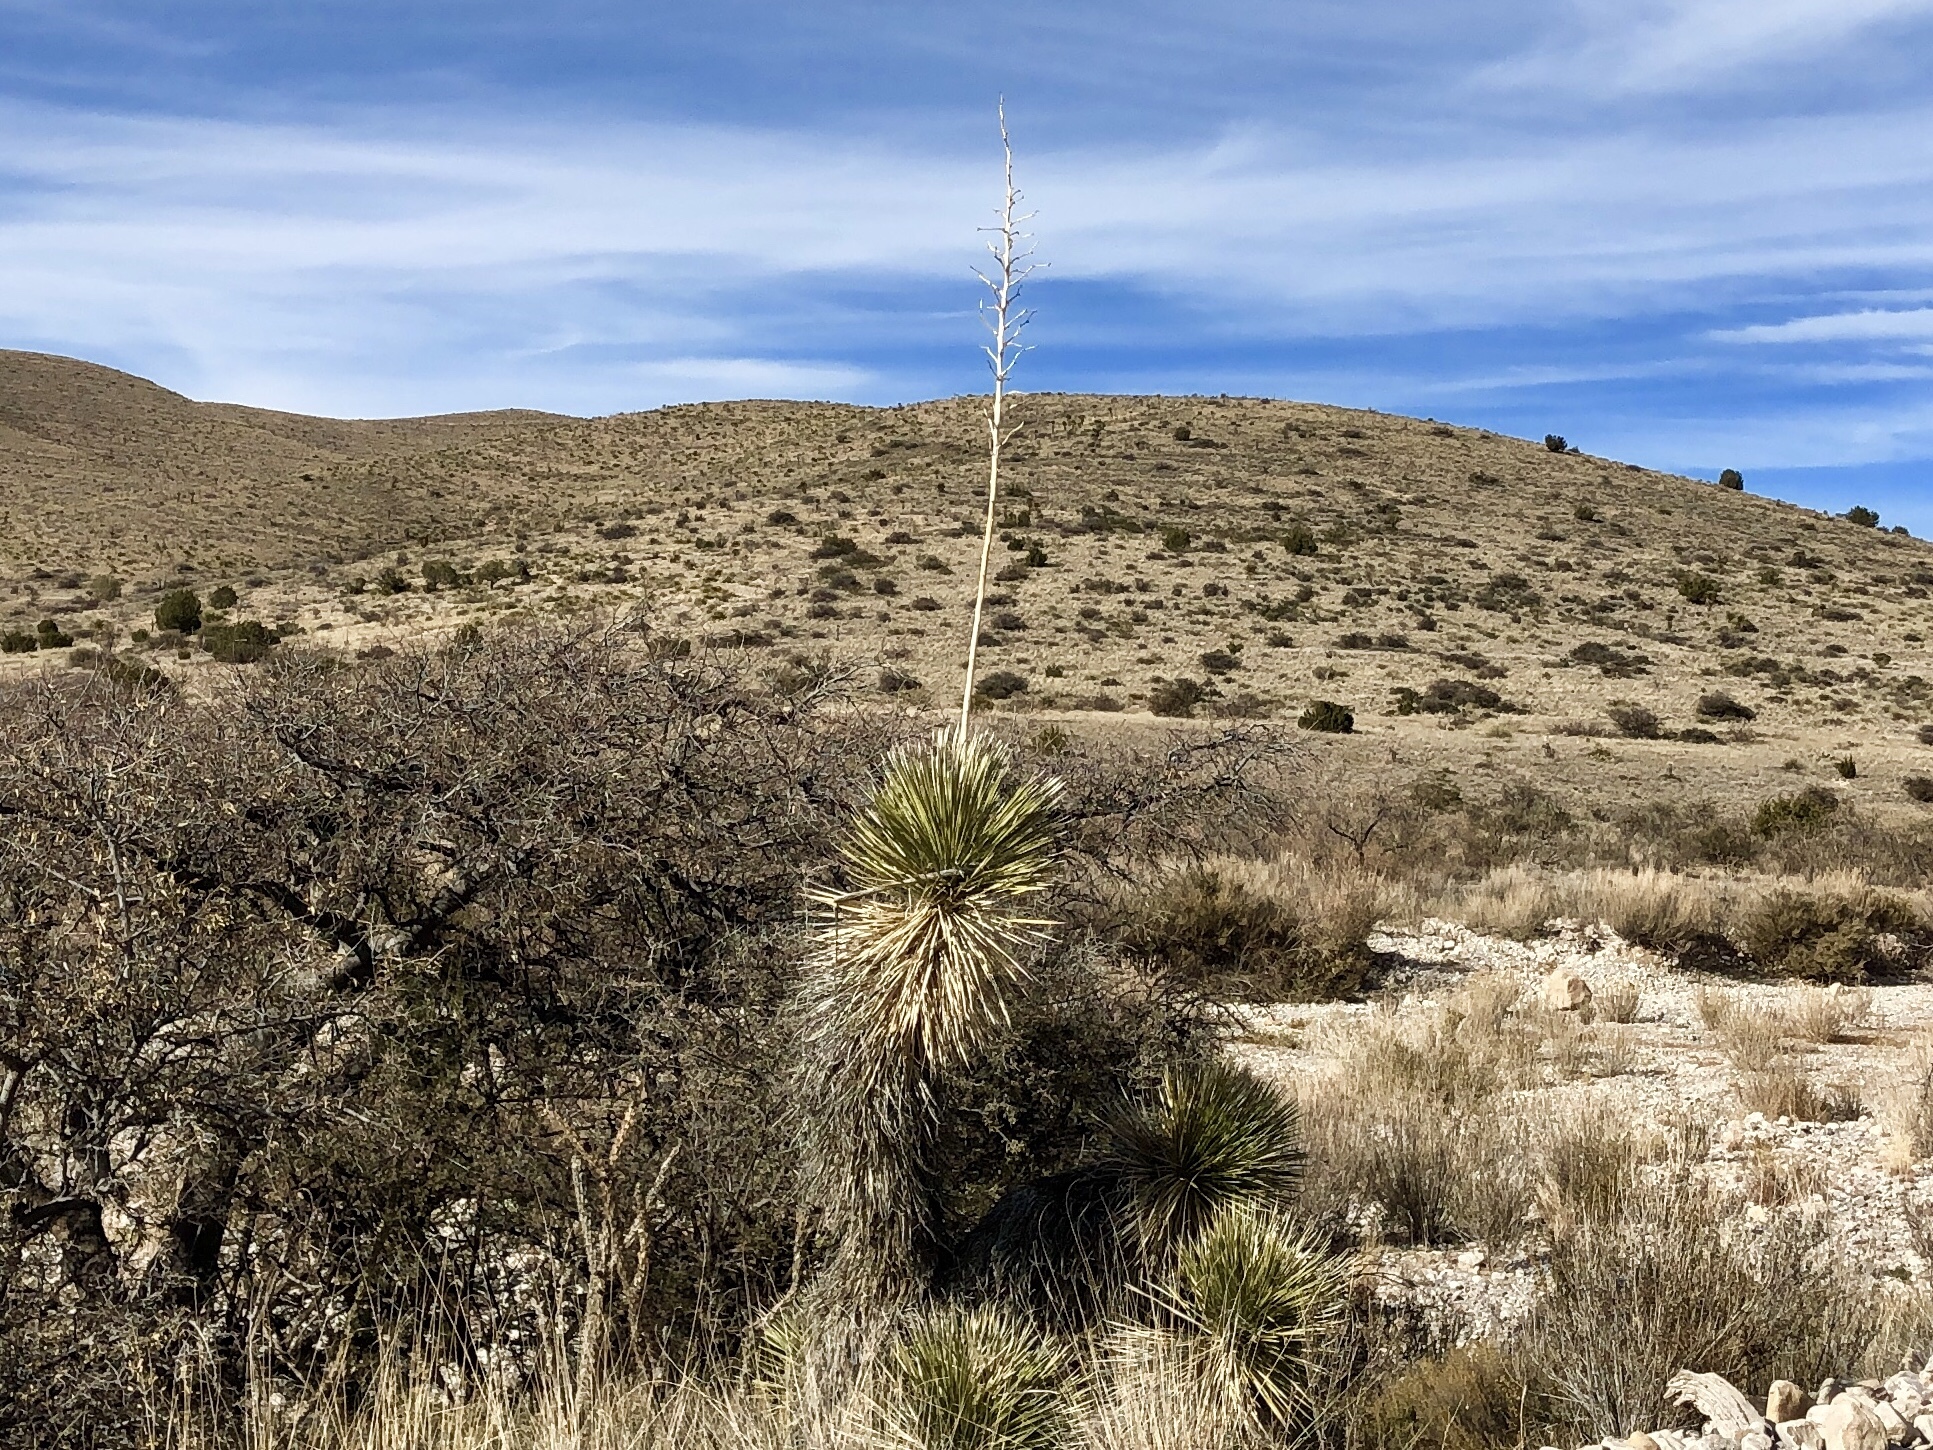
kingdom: Plantae
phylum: Tracheophyta
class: Liliopsida
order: Asparagales
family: Asparagaceae
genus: Yucca
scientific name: Yucca elata
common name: Palmella
